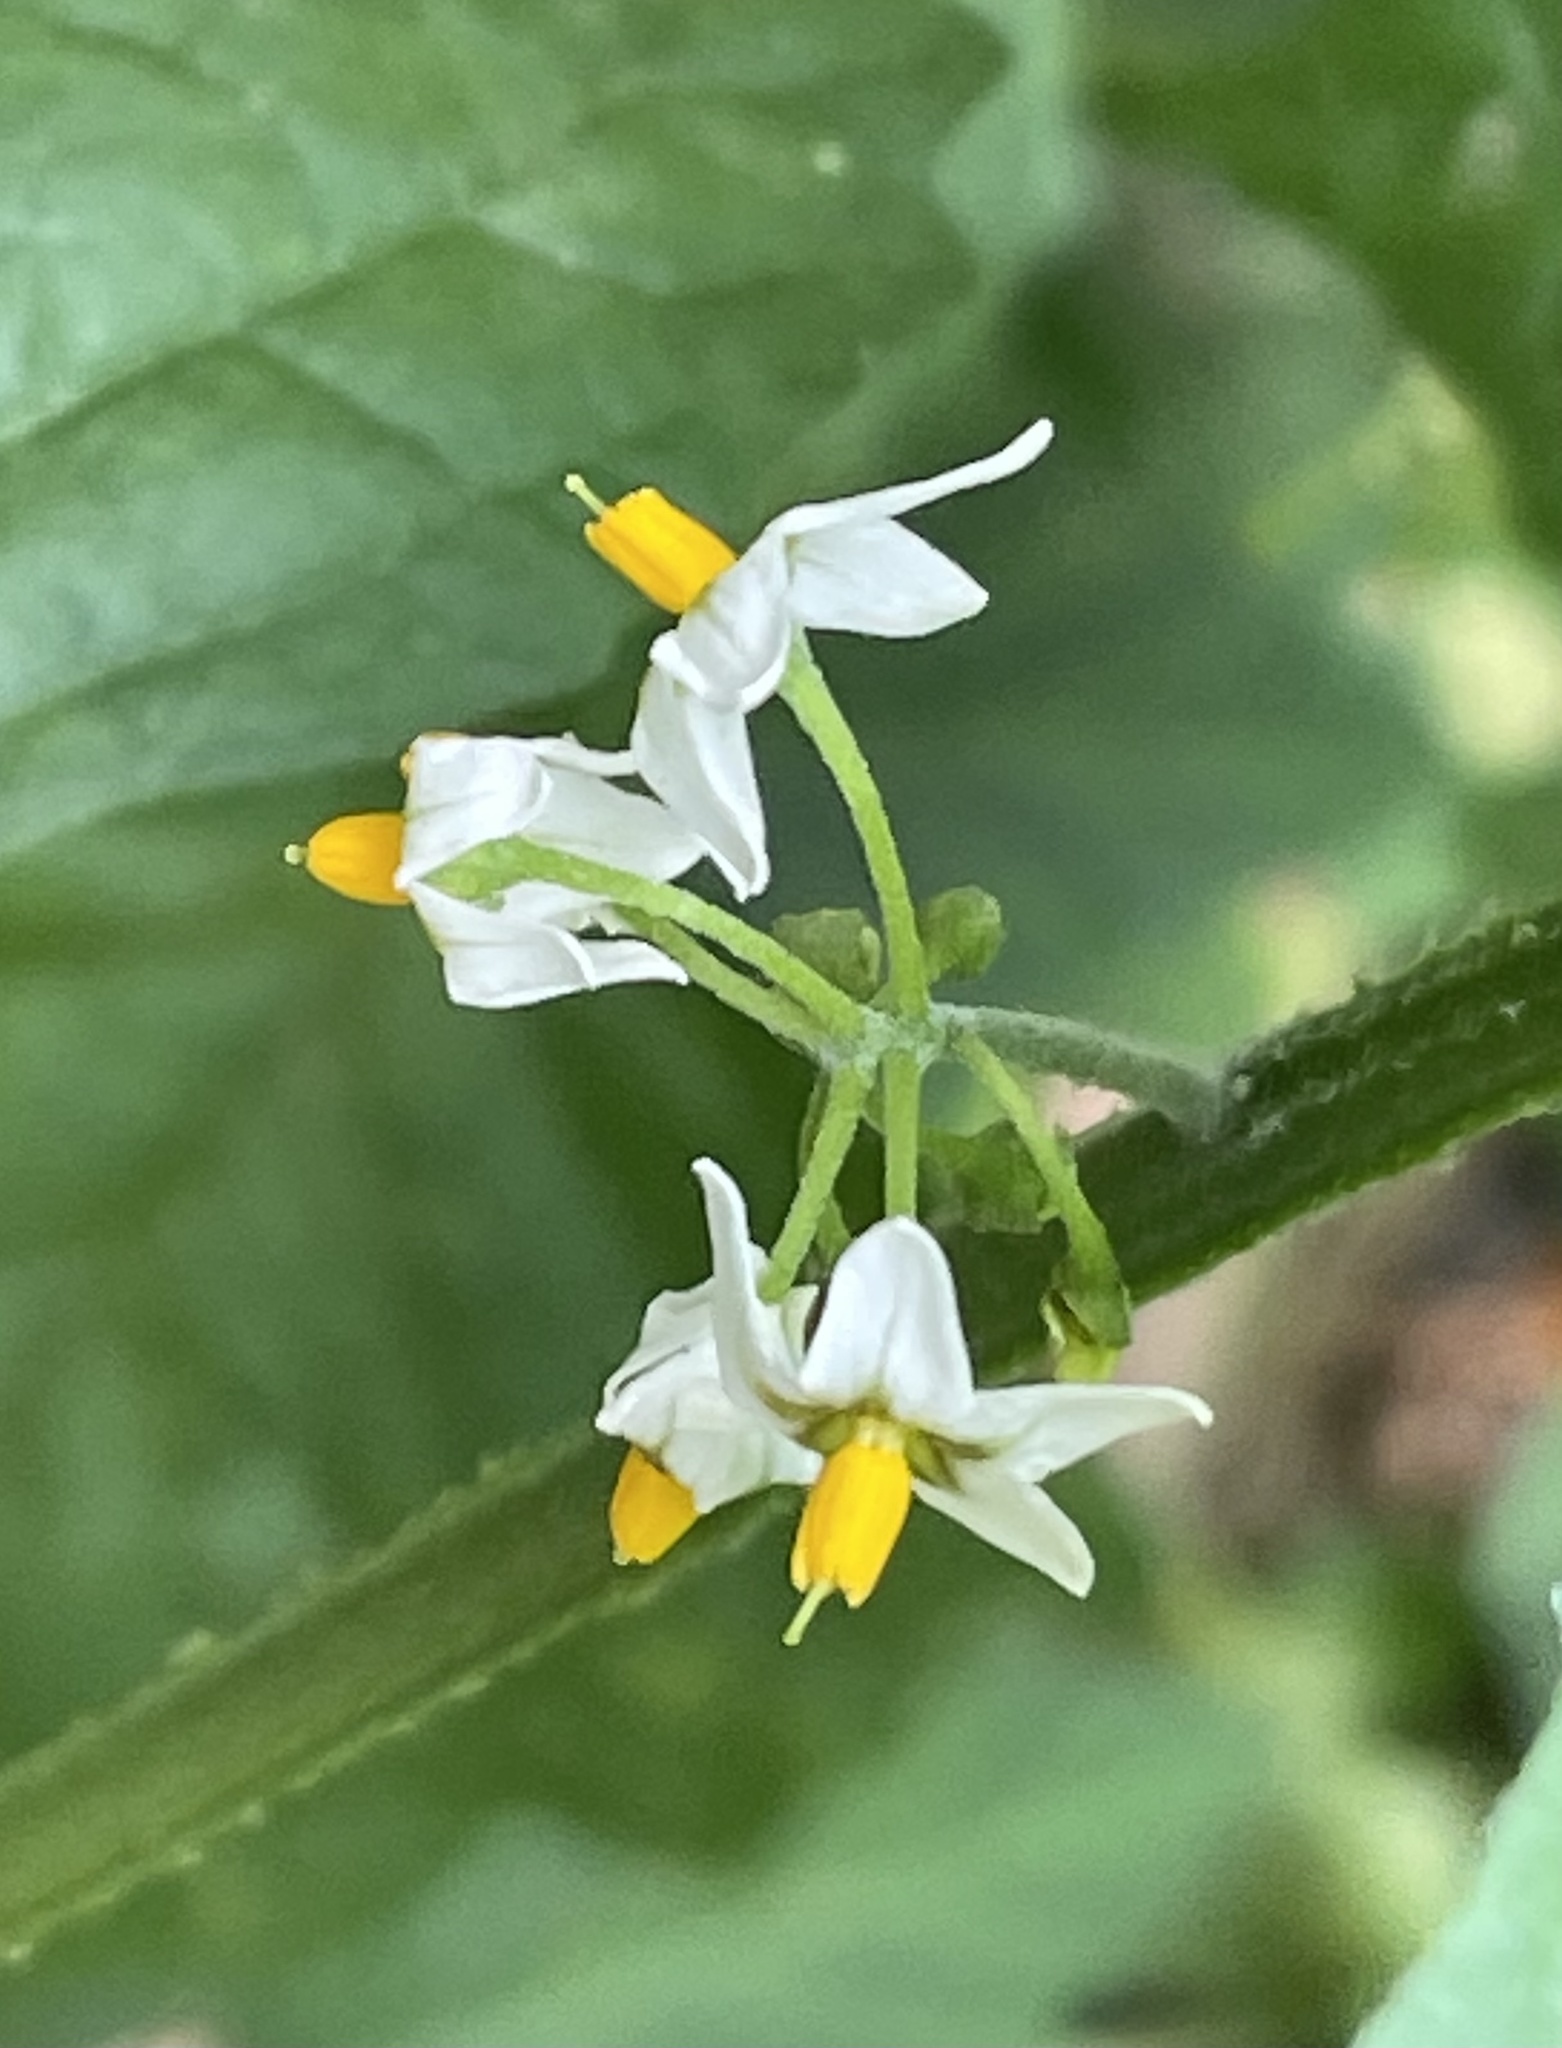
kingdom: Plantae
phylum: Tracheophyta
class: Magnoliopsida
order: Solanales
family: Solanaceae
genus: Solanum
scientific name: Solanum nigrum
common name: Black nightshade
